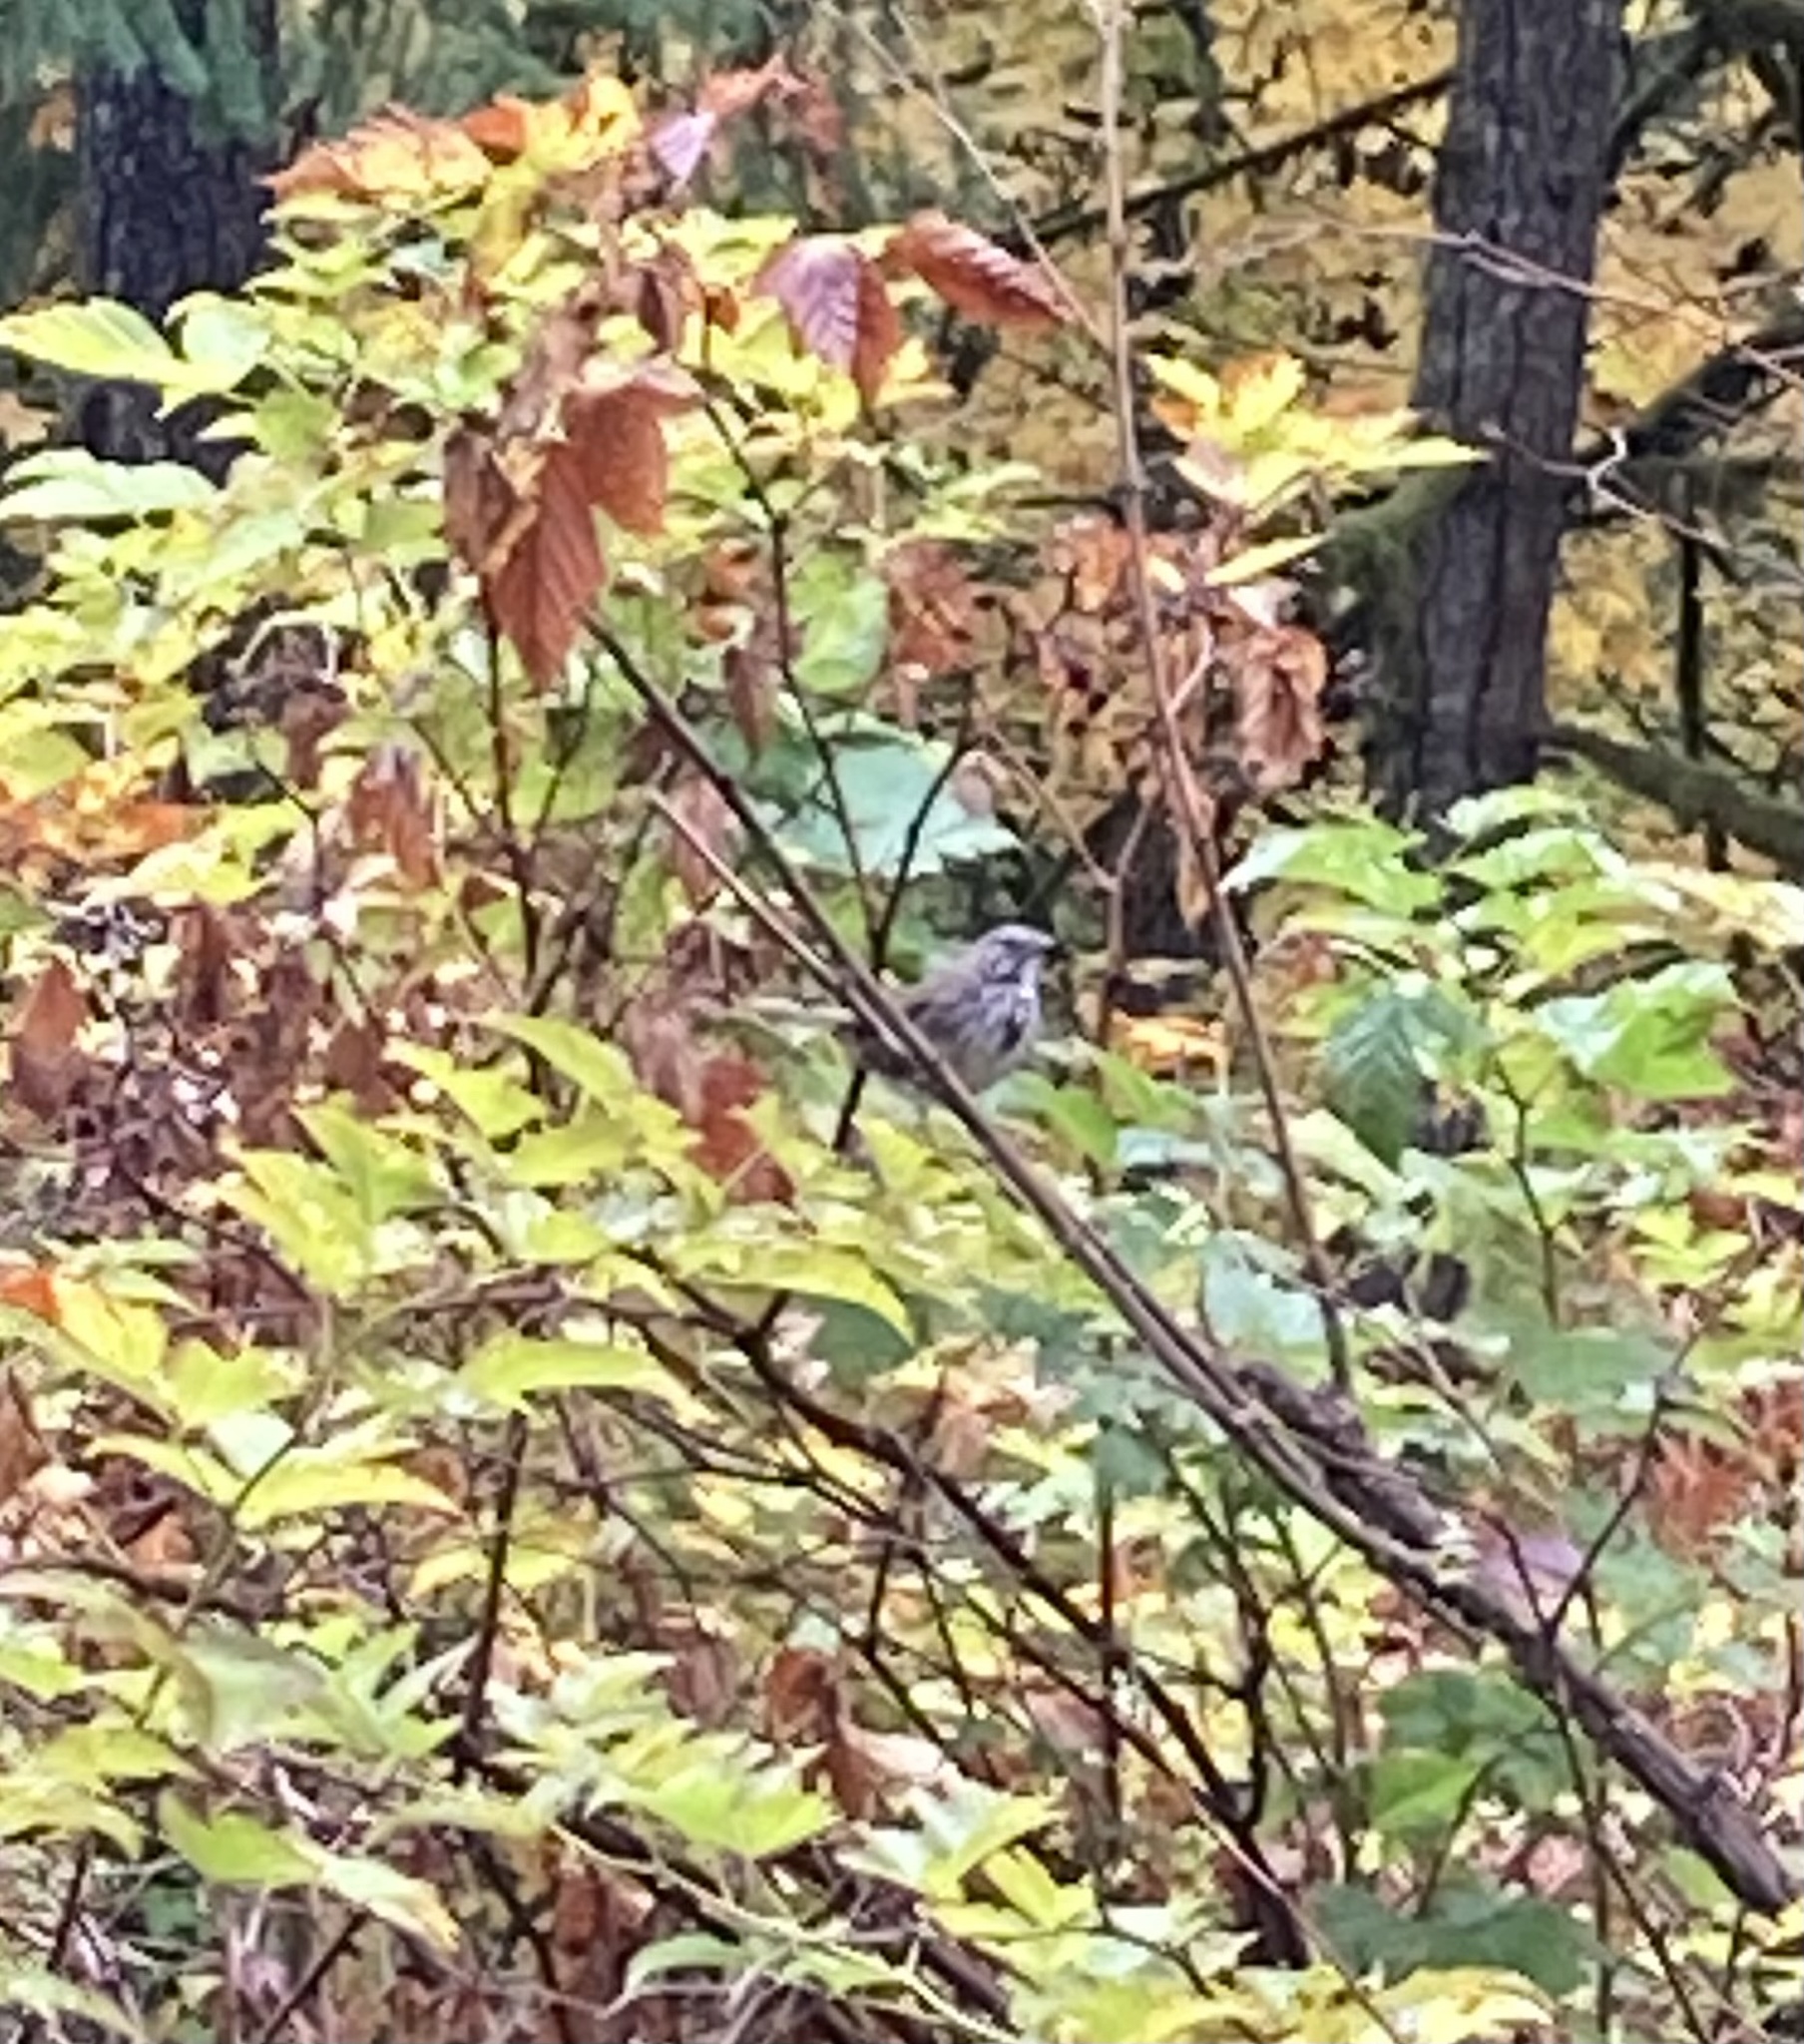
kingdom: Animalia
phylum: Chordata
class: Aves
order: Passeriformes
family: Passerellidae
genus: Melospiza
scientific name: Melospiza melodia
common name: Song sparrow
